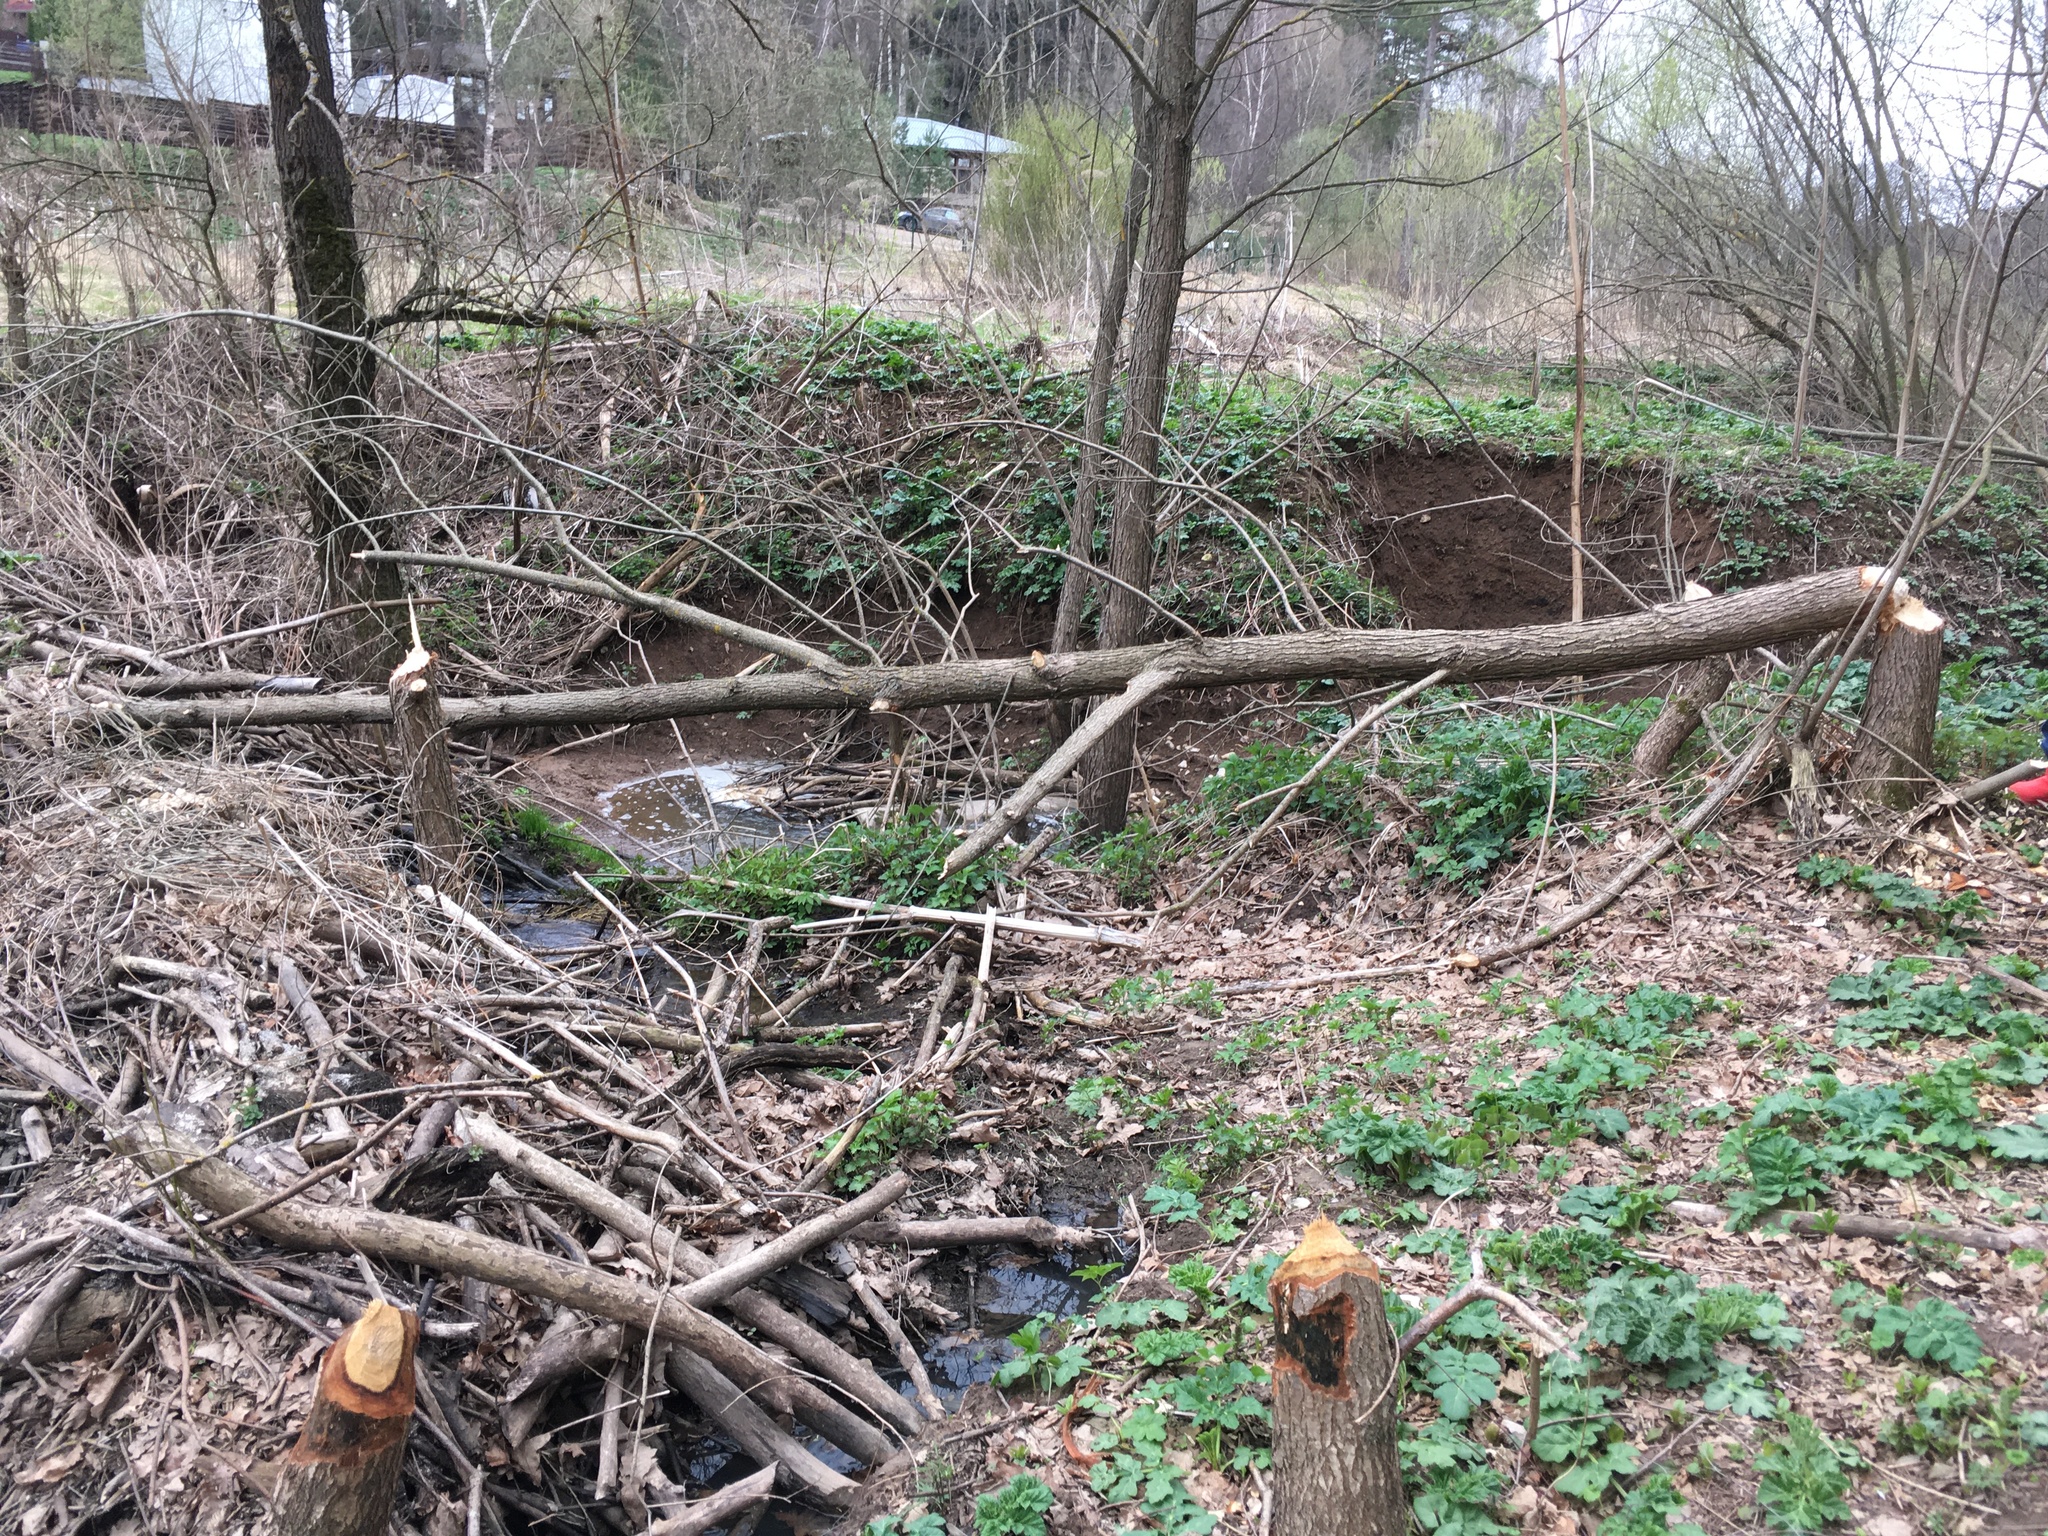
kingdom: Animalia
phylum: Chordata
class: Mammalia
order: Rodentia
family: Castoridae
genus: Castor
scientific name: Castor fiber
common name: Eurasian beaver
